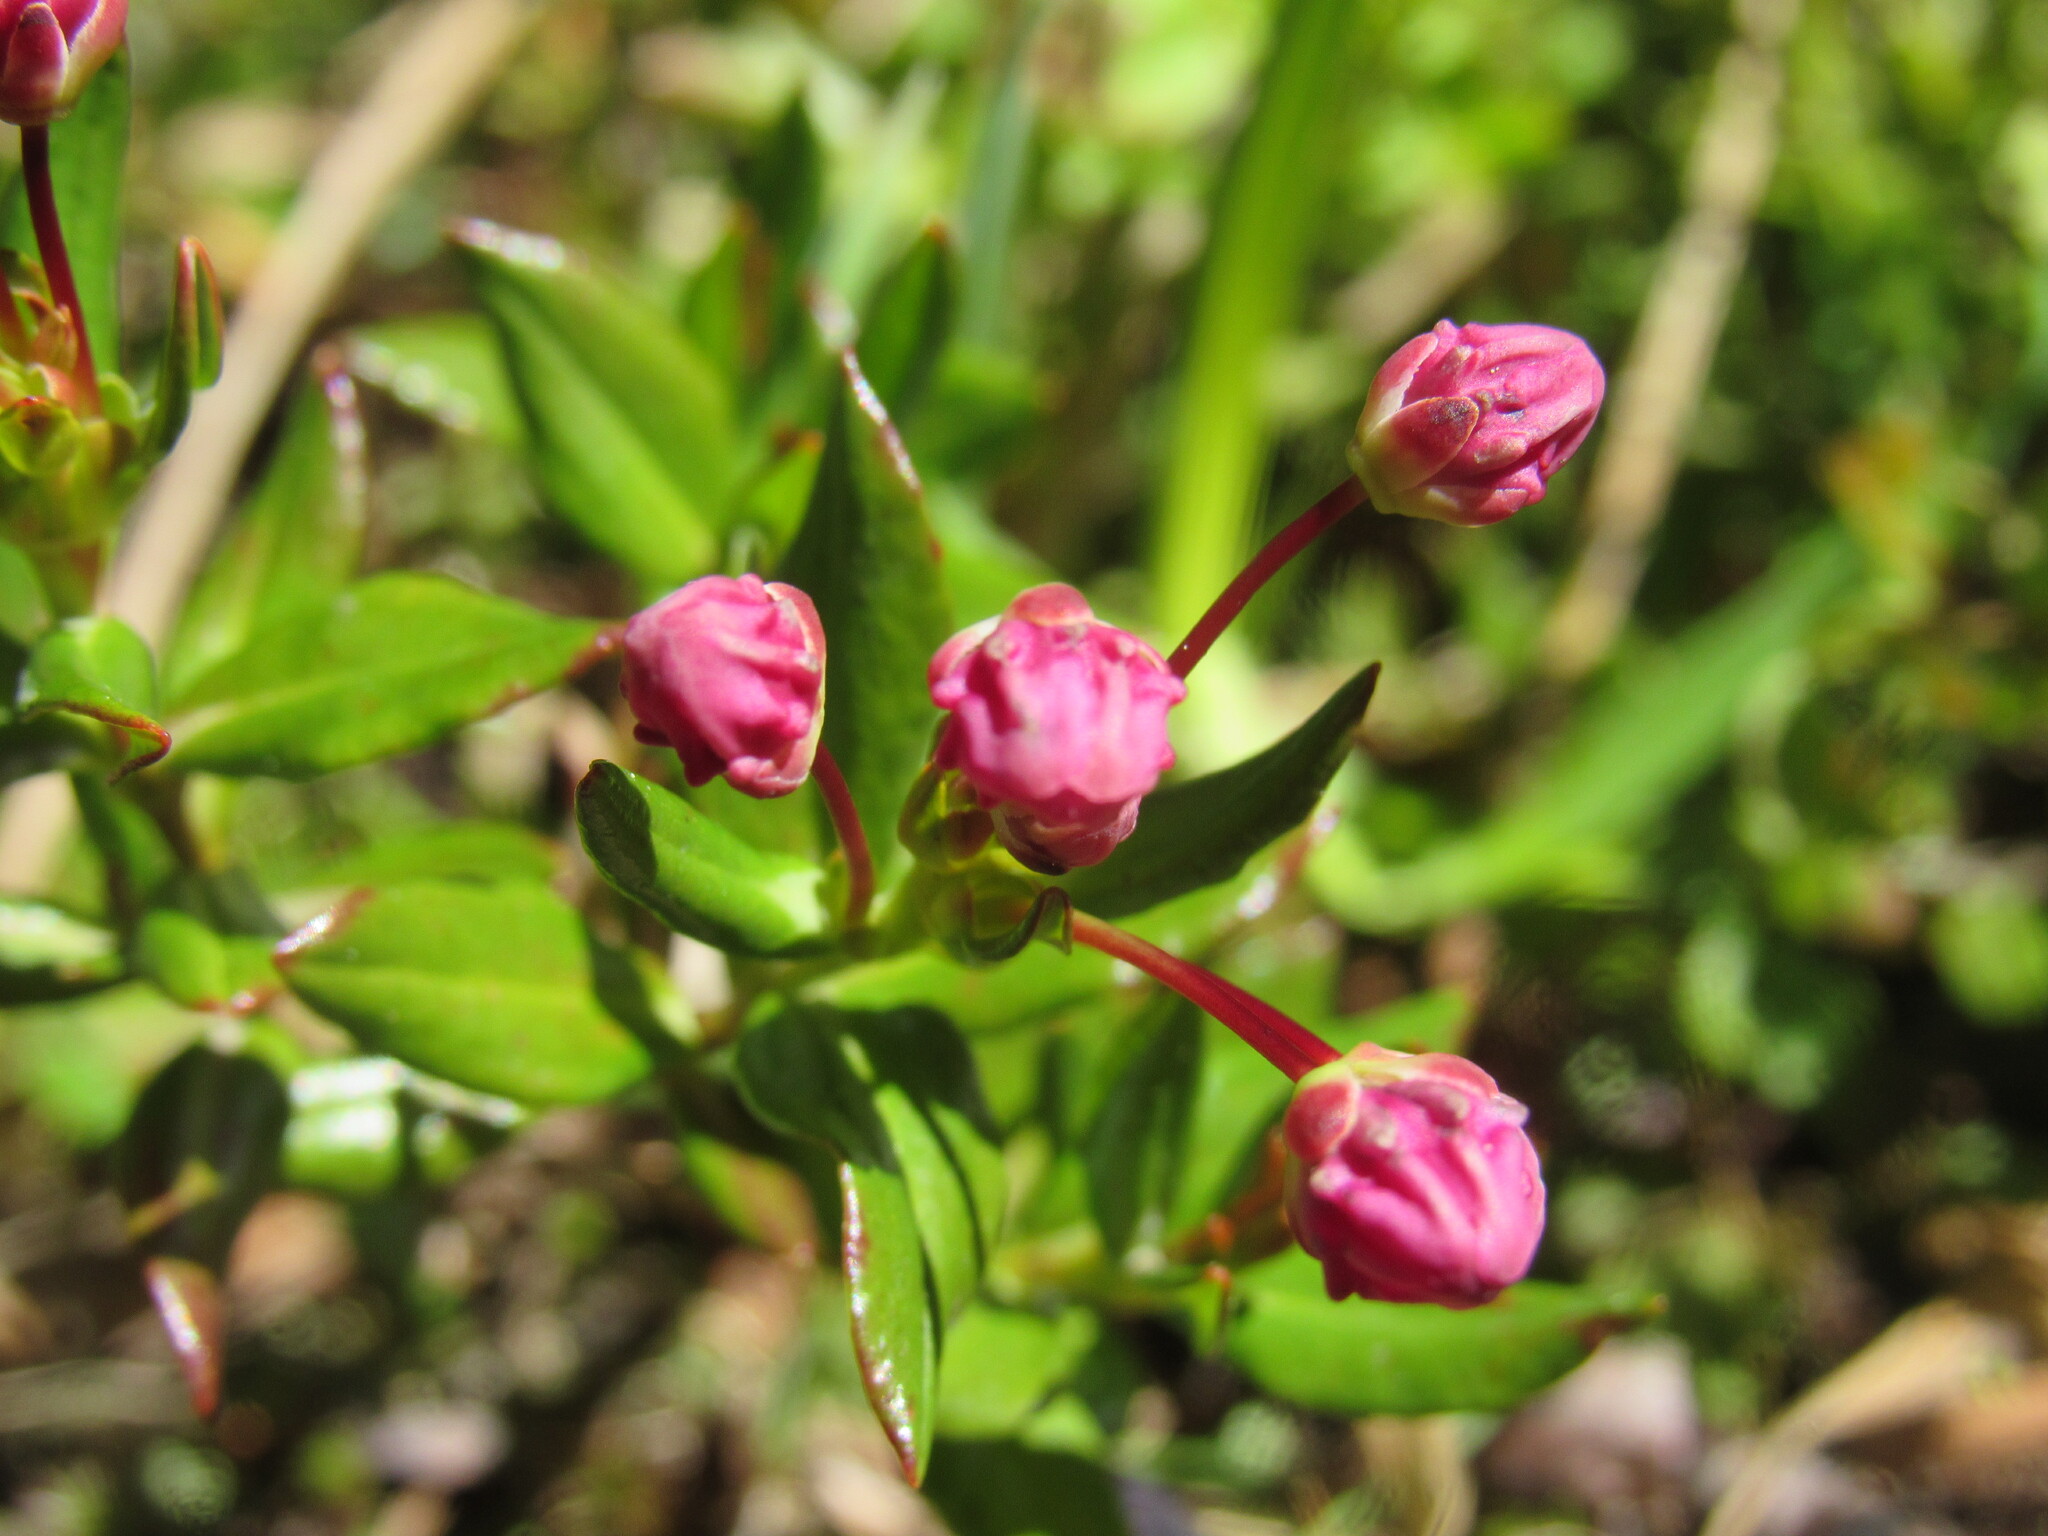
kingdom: Plantae
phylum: Tracheophyta
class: Magnoliopsida
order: Ericales
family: Ericaceae
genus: Kalmia
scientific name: Kalmia microphylla
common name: Alpine bog laurel
